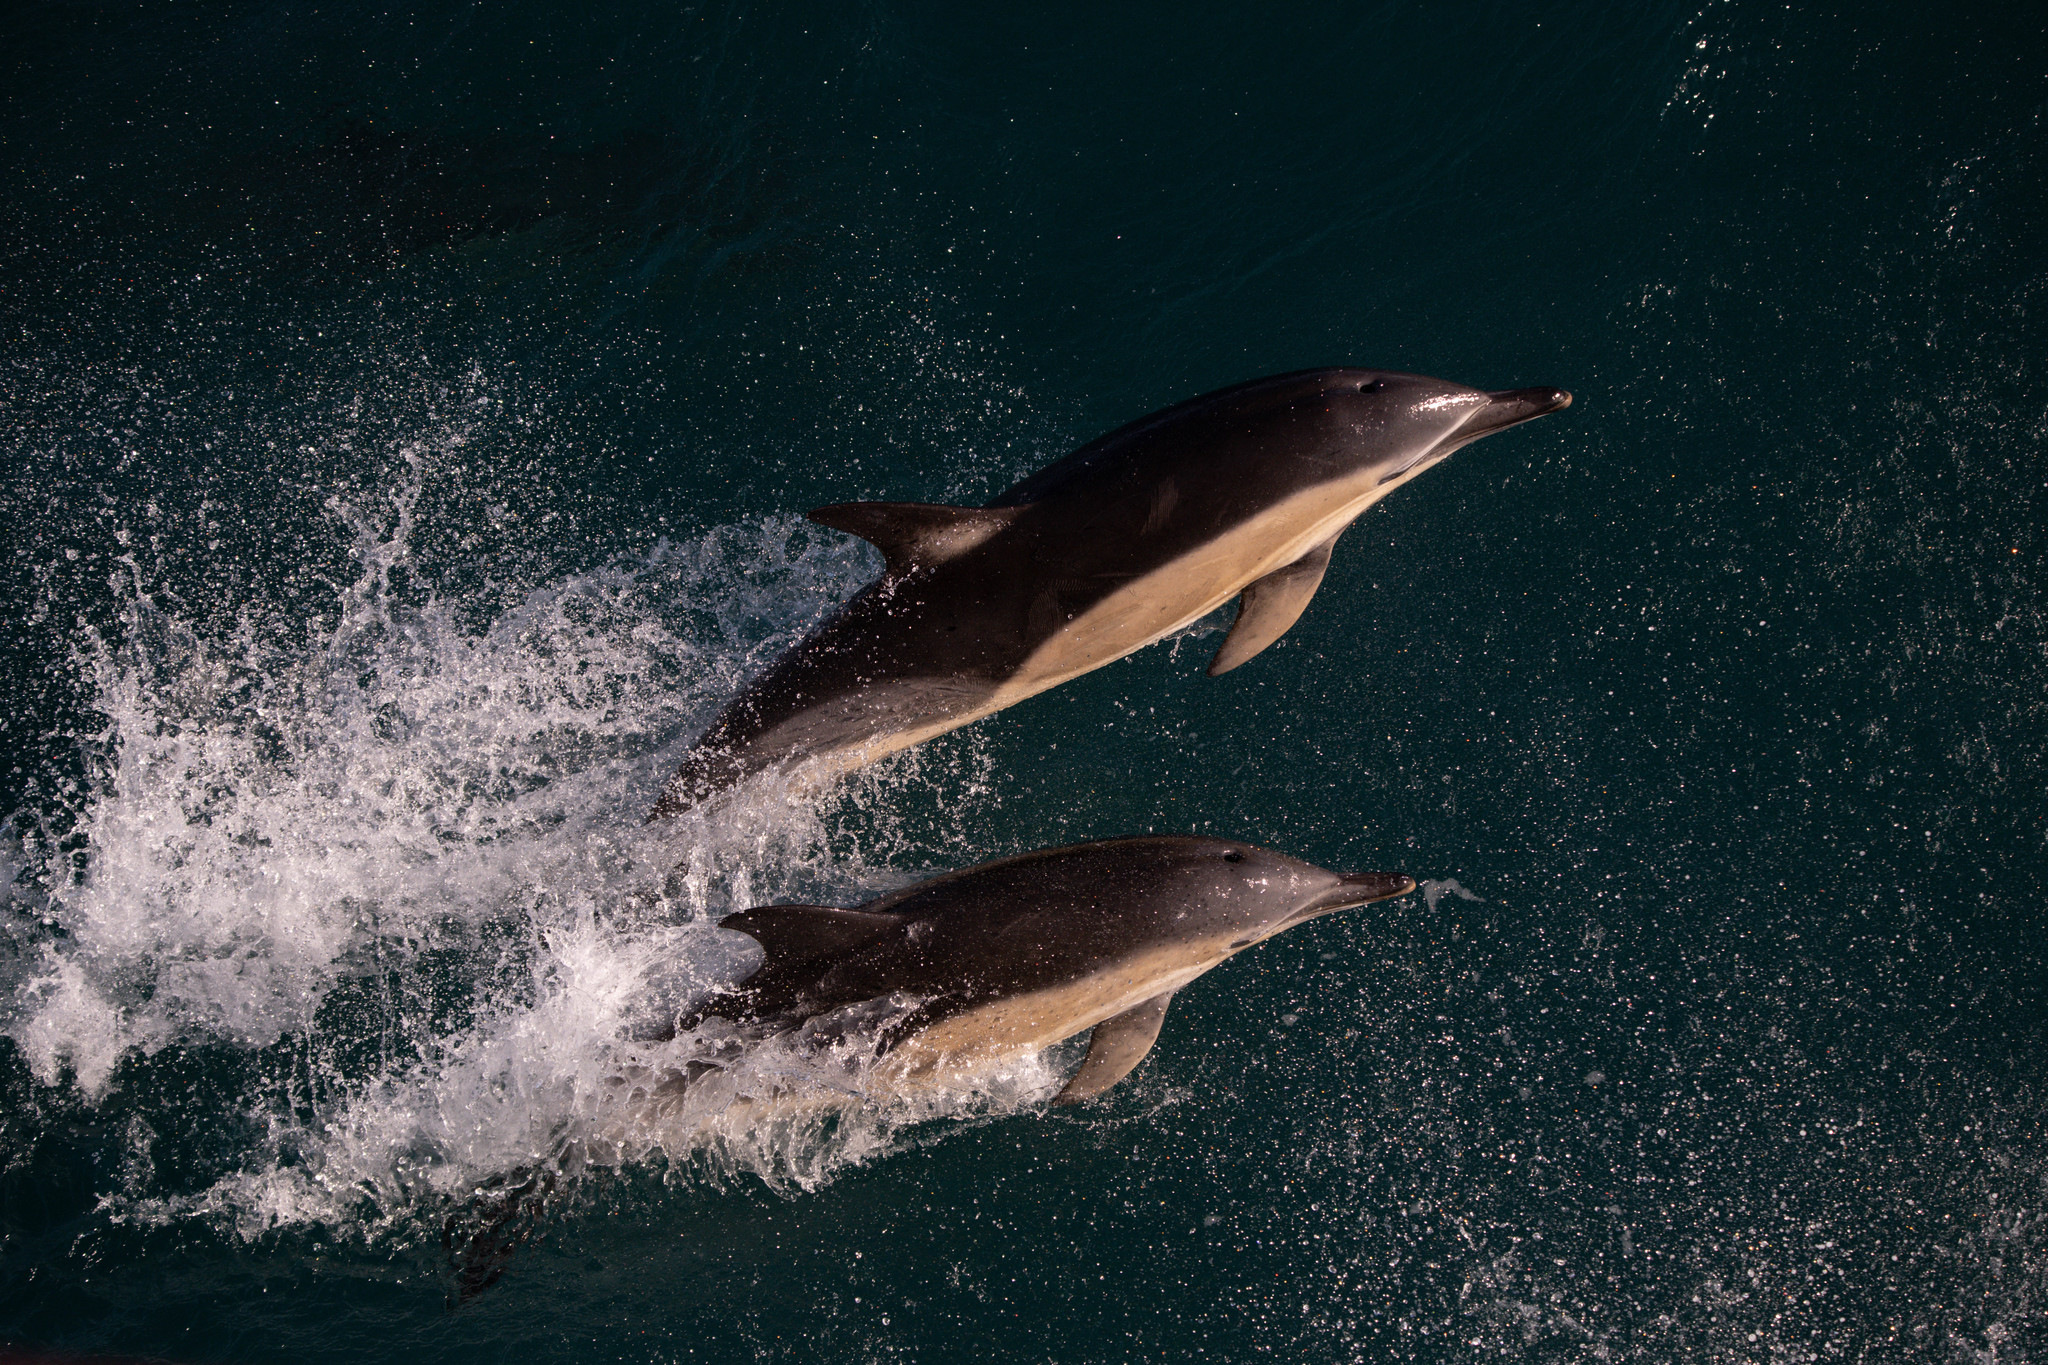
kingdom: Animalia
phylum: Chordata
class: Mammalia
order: Cetacea
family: Delphinidae
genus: Delphinus
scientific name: Delphinus delphis
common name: Common dolphin
